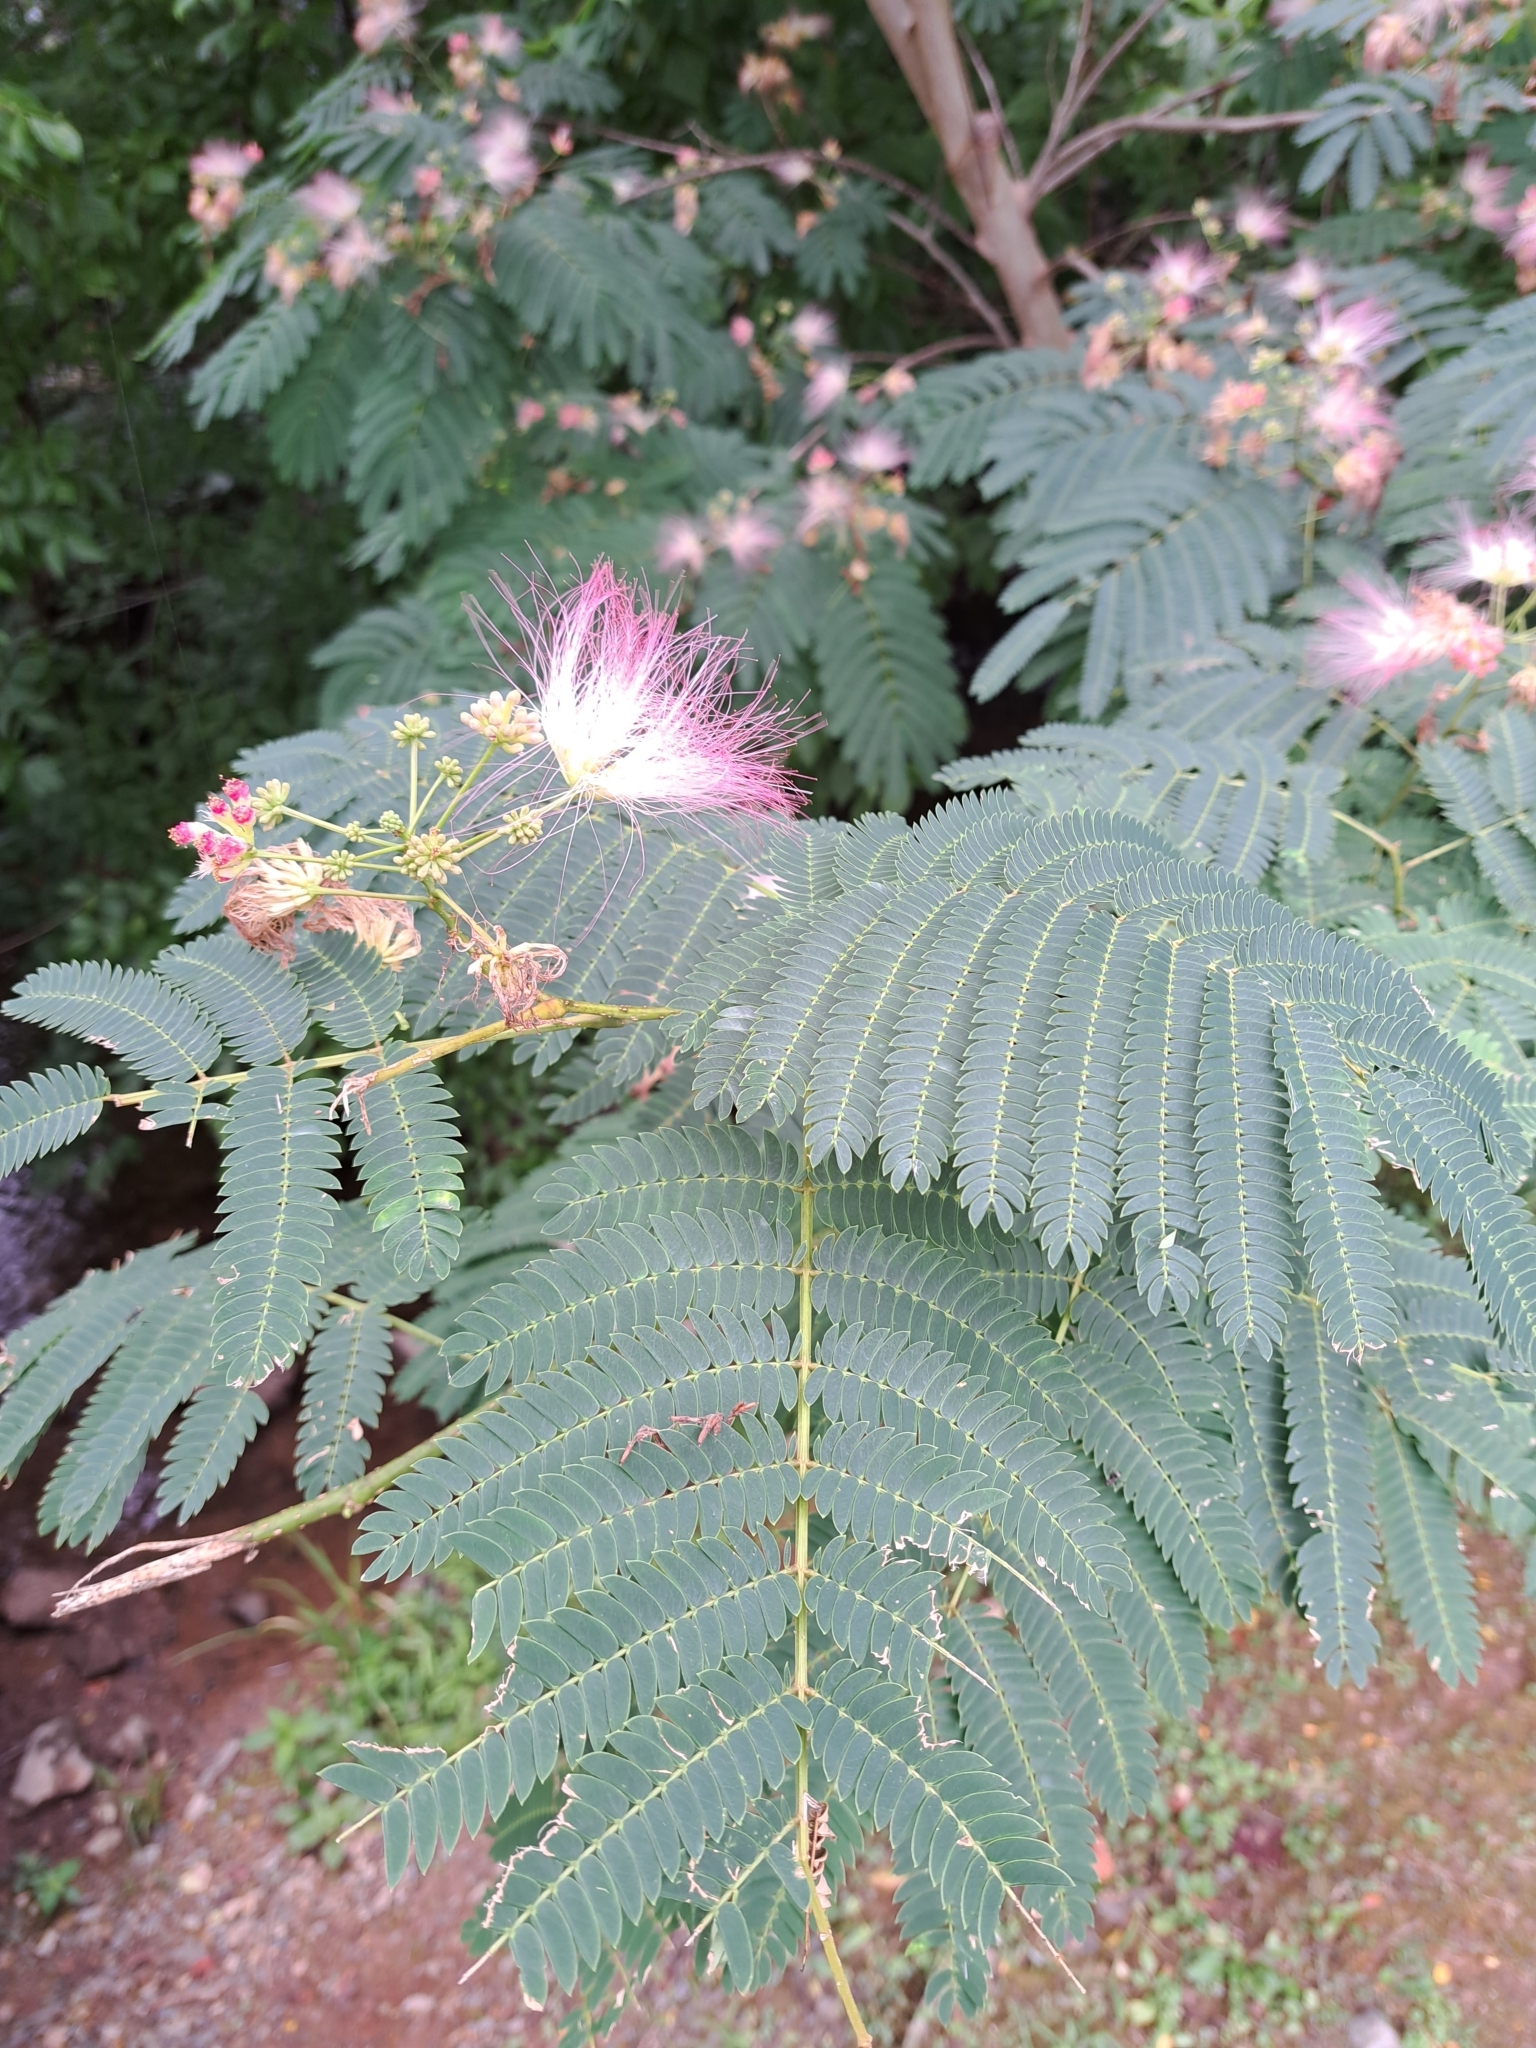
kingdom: Plantae
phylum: Tracheophyta
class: Magnoliopsida
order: Fabales
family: Fabaceae
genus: Albizia
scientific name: Albizia julibrissin
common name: Silktree
